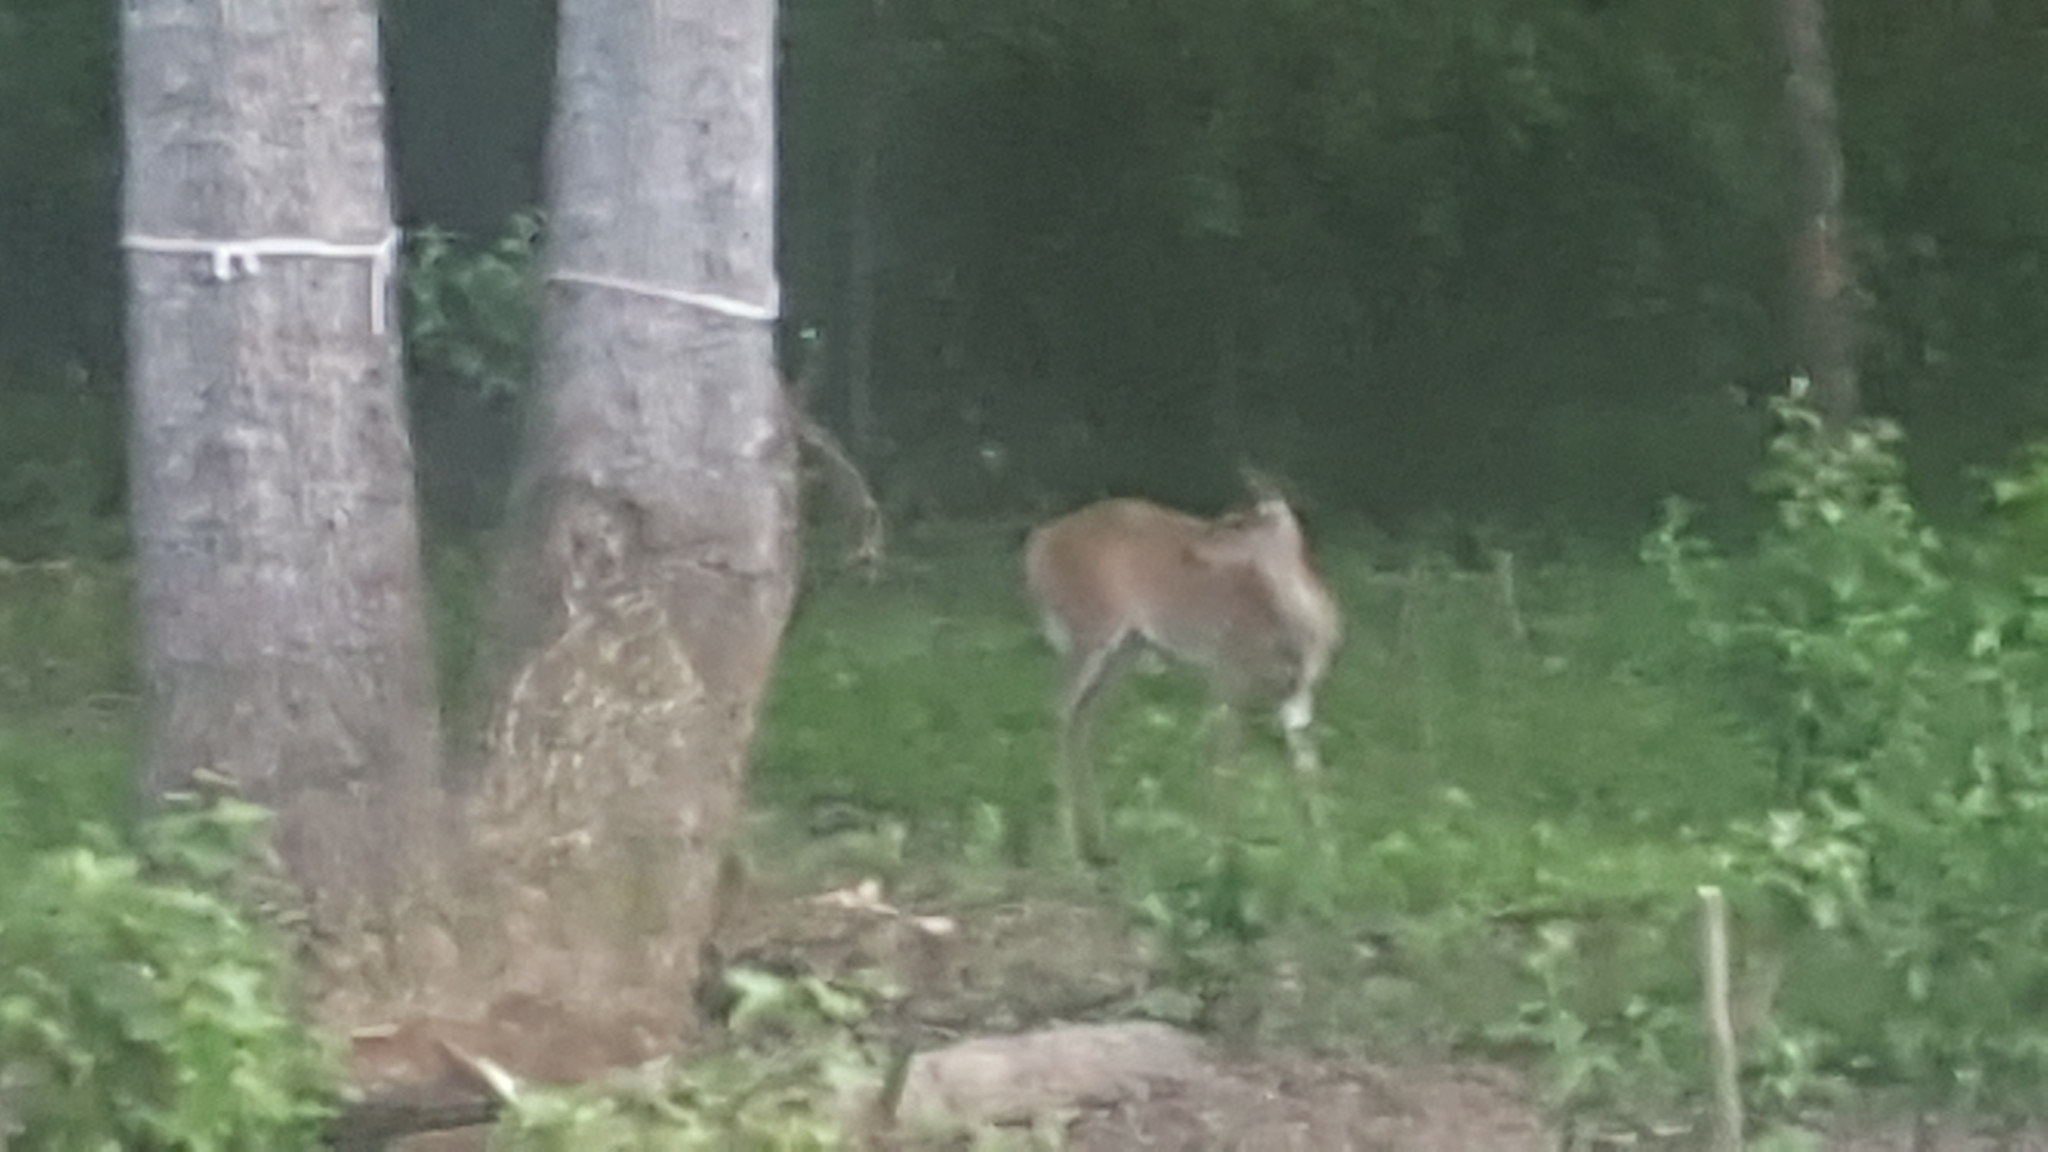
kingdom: Animalia
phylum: Chordata
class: Mammalia
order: Artiodactyla
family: Cervidae
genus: Odocoileus
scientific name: Odocoileus virginianus
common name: White-tailed deer
